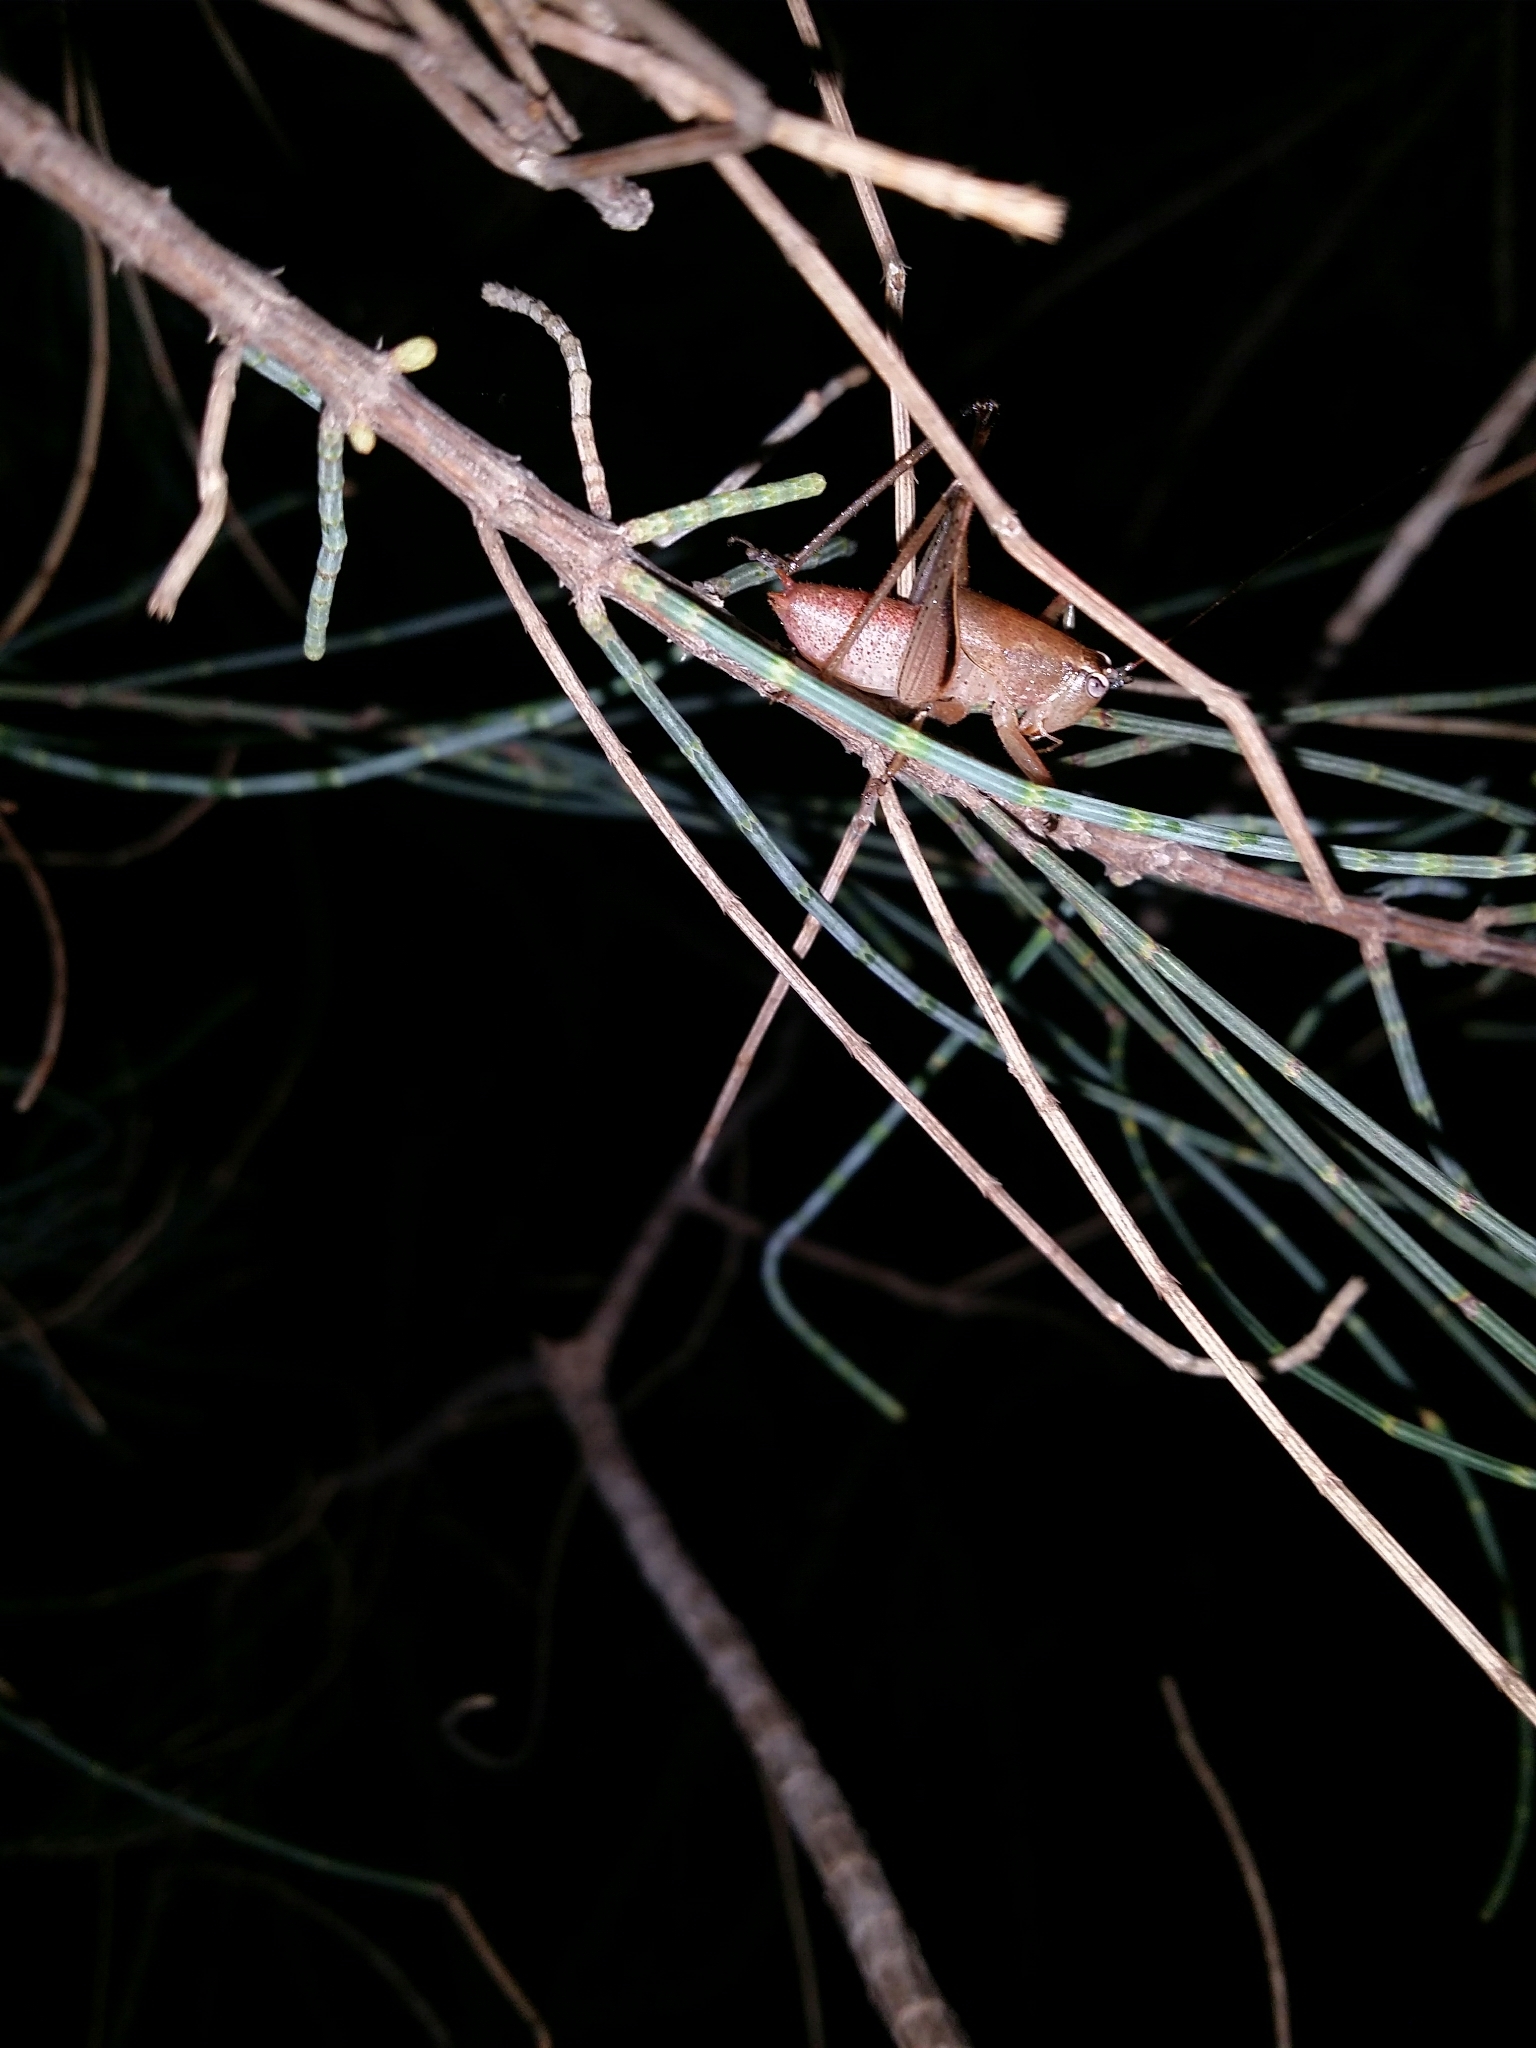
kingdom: Animalia
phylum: Arthropoda
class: Insecta
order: Orthoptera
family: Tettigoniidae
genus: Requena
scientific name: Requena verticalis
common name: Common western requena
